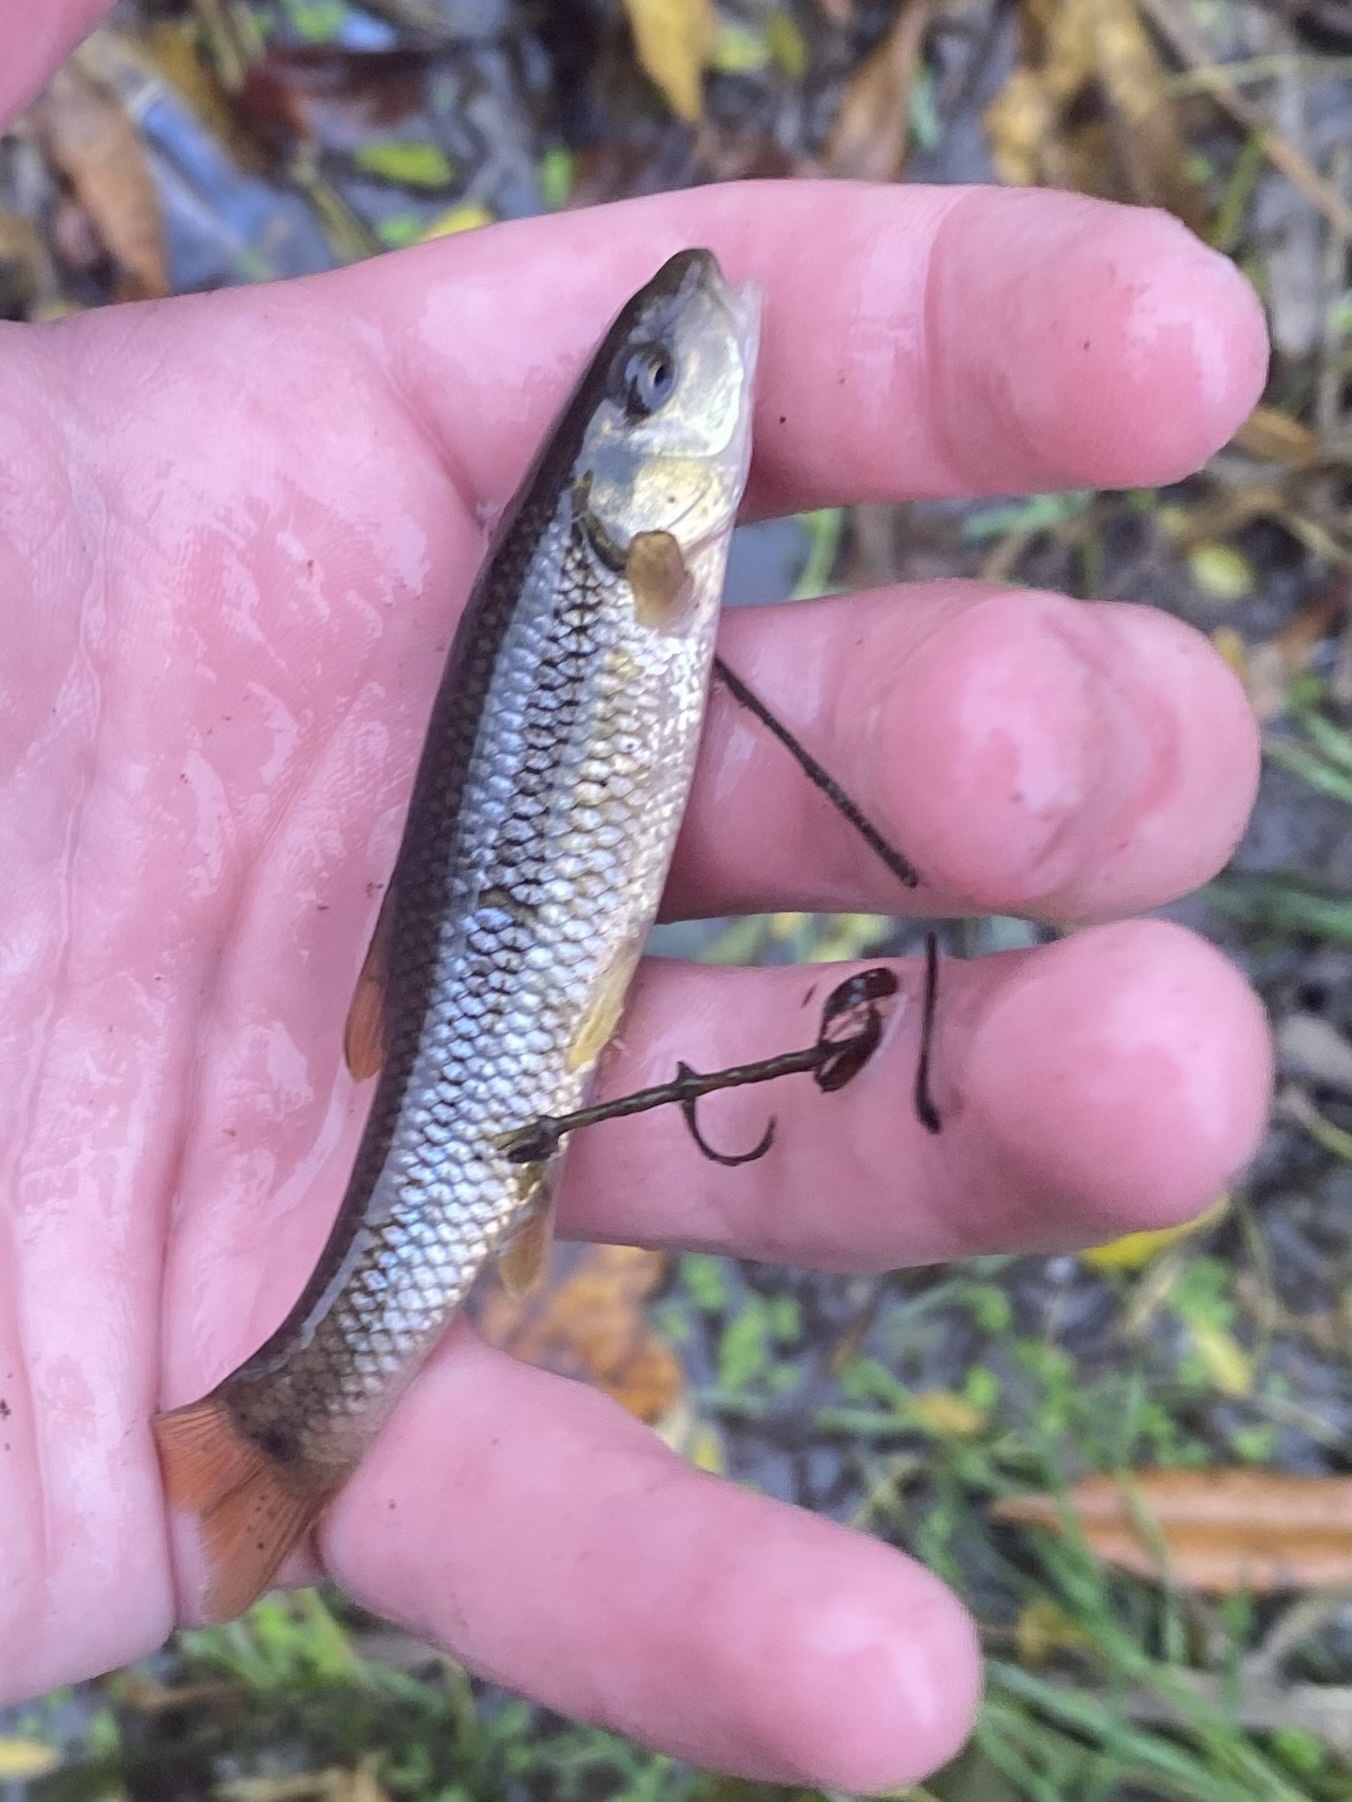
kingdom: Animalia
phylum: Chordata
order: Cypriniformes
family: Cyprinidae
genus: Nocomis
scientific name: Nocomis biguttatus
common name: Hornyhead chub
